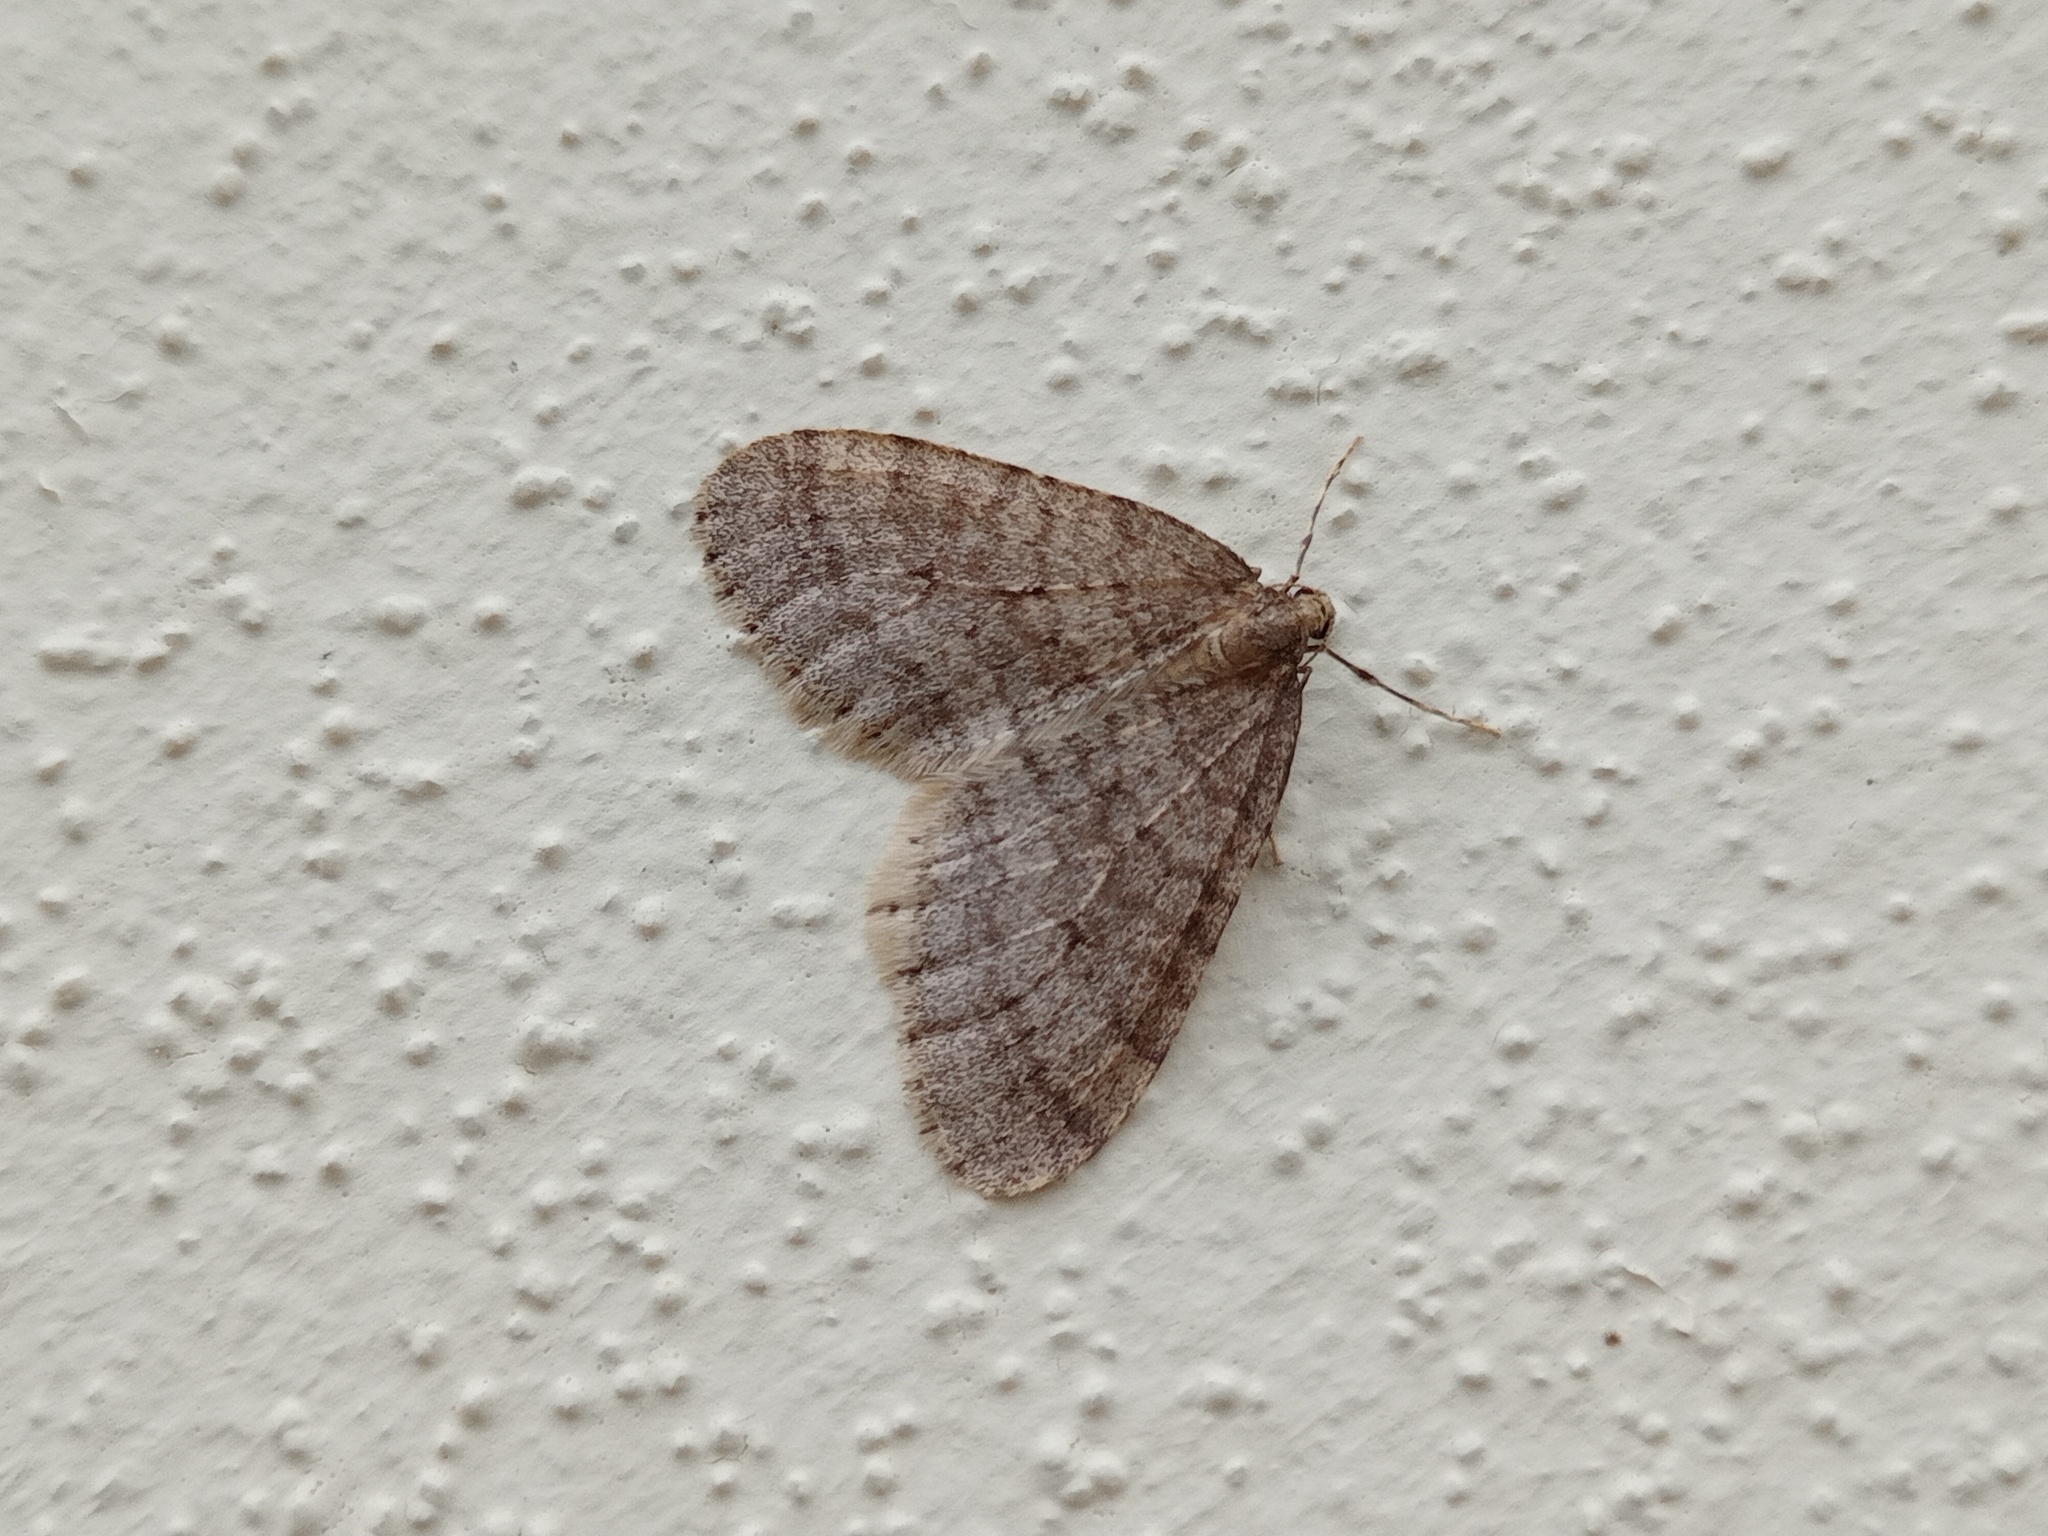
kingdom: Animalia
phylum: Arthropoda
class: Insecta
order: Lepidoptera
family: Geometridae
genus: Operophtera
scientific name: Operophtera brumata
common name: Winter moth
